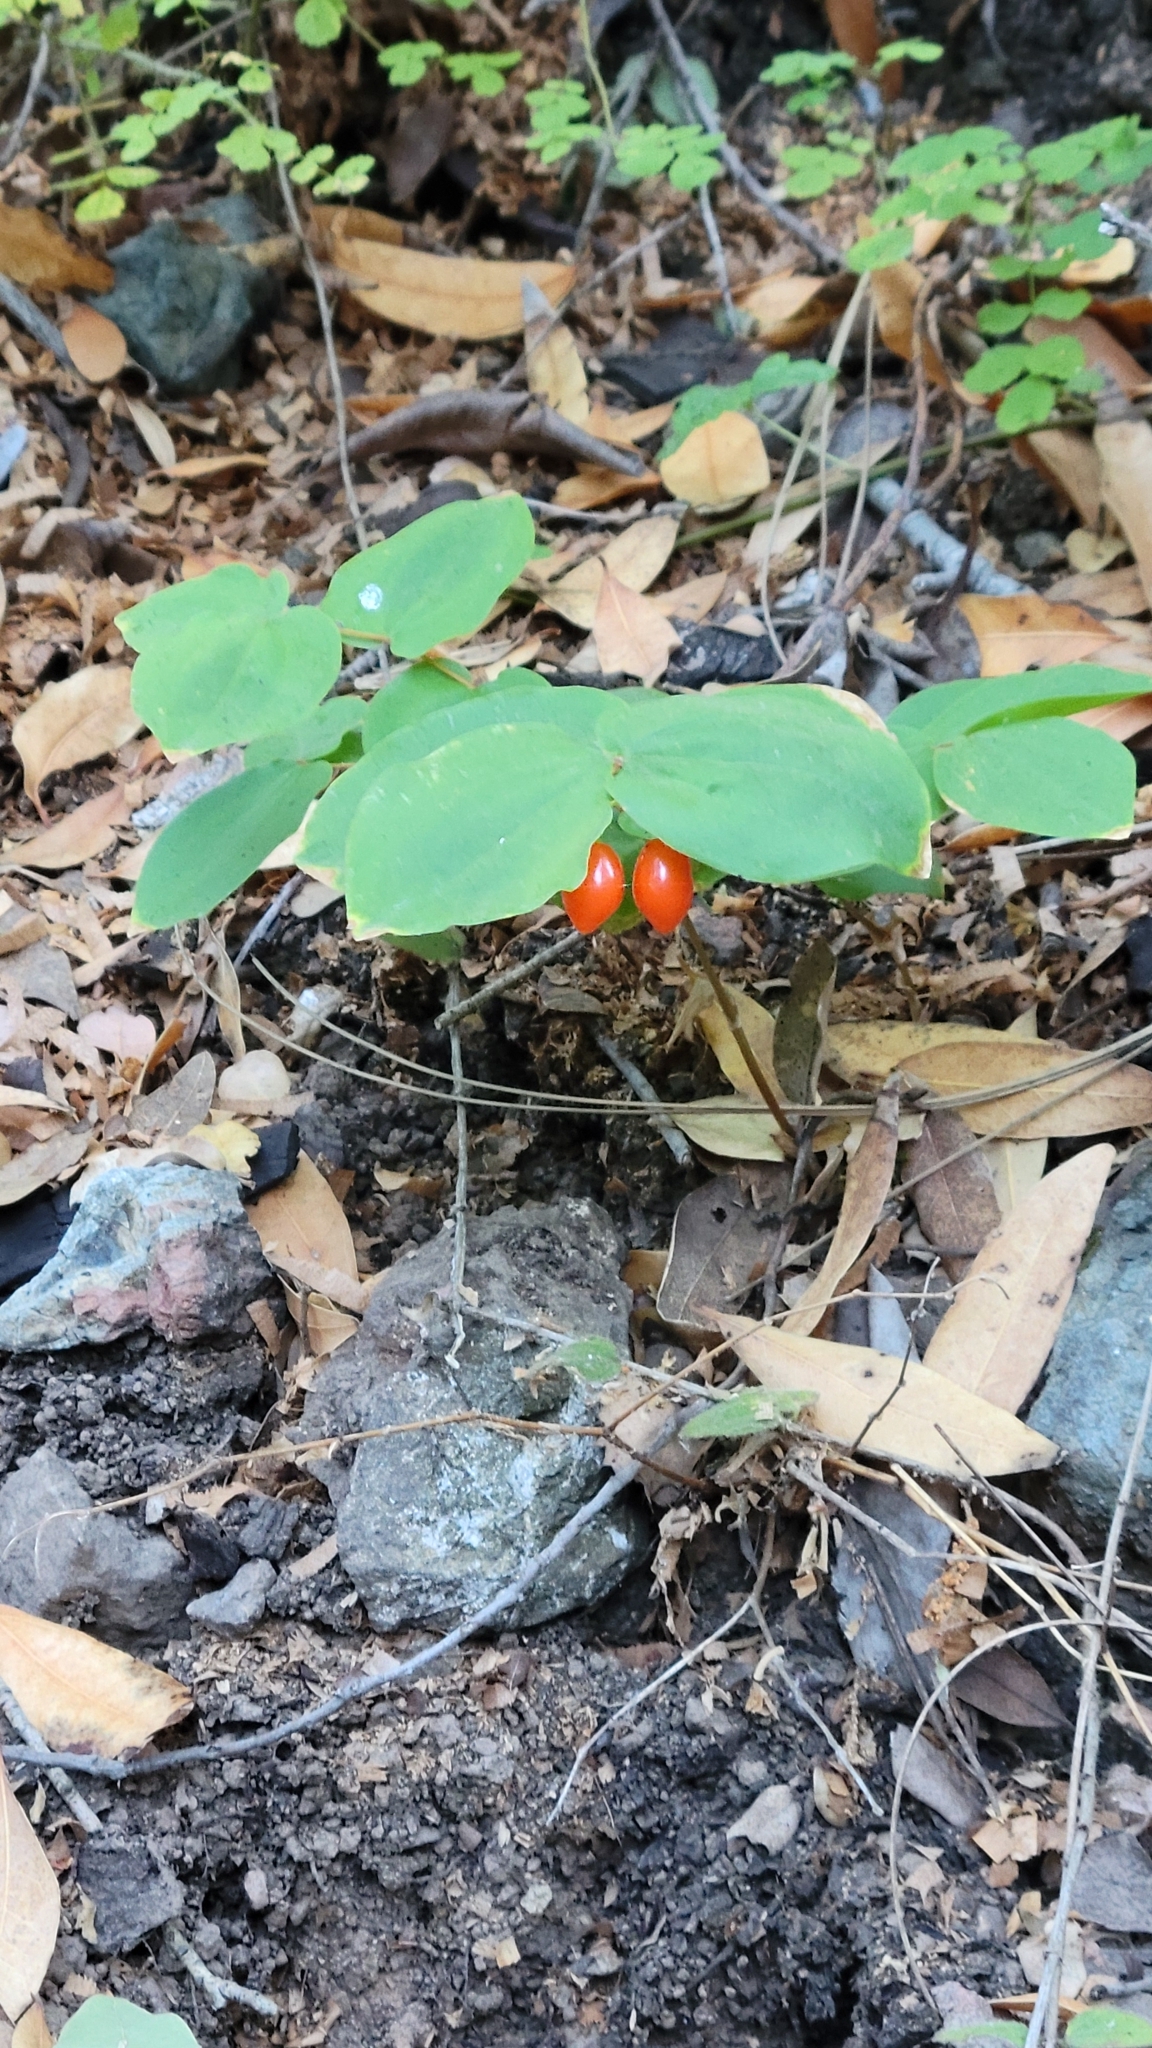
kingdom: Plantae
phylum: Tracheophyta
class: Liliopsida
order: Liliales
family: Liliaceae
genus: Prosartes
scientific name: Prosartes hookeri
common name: Fairy-bells
